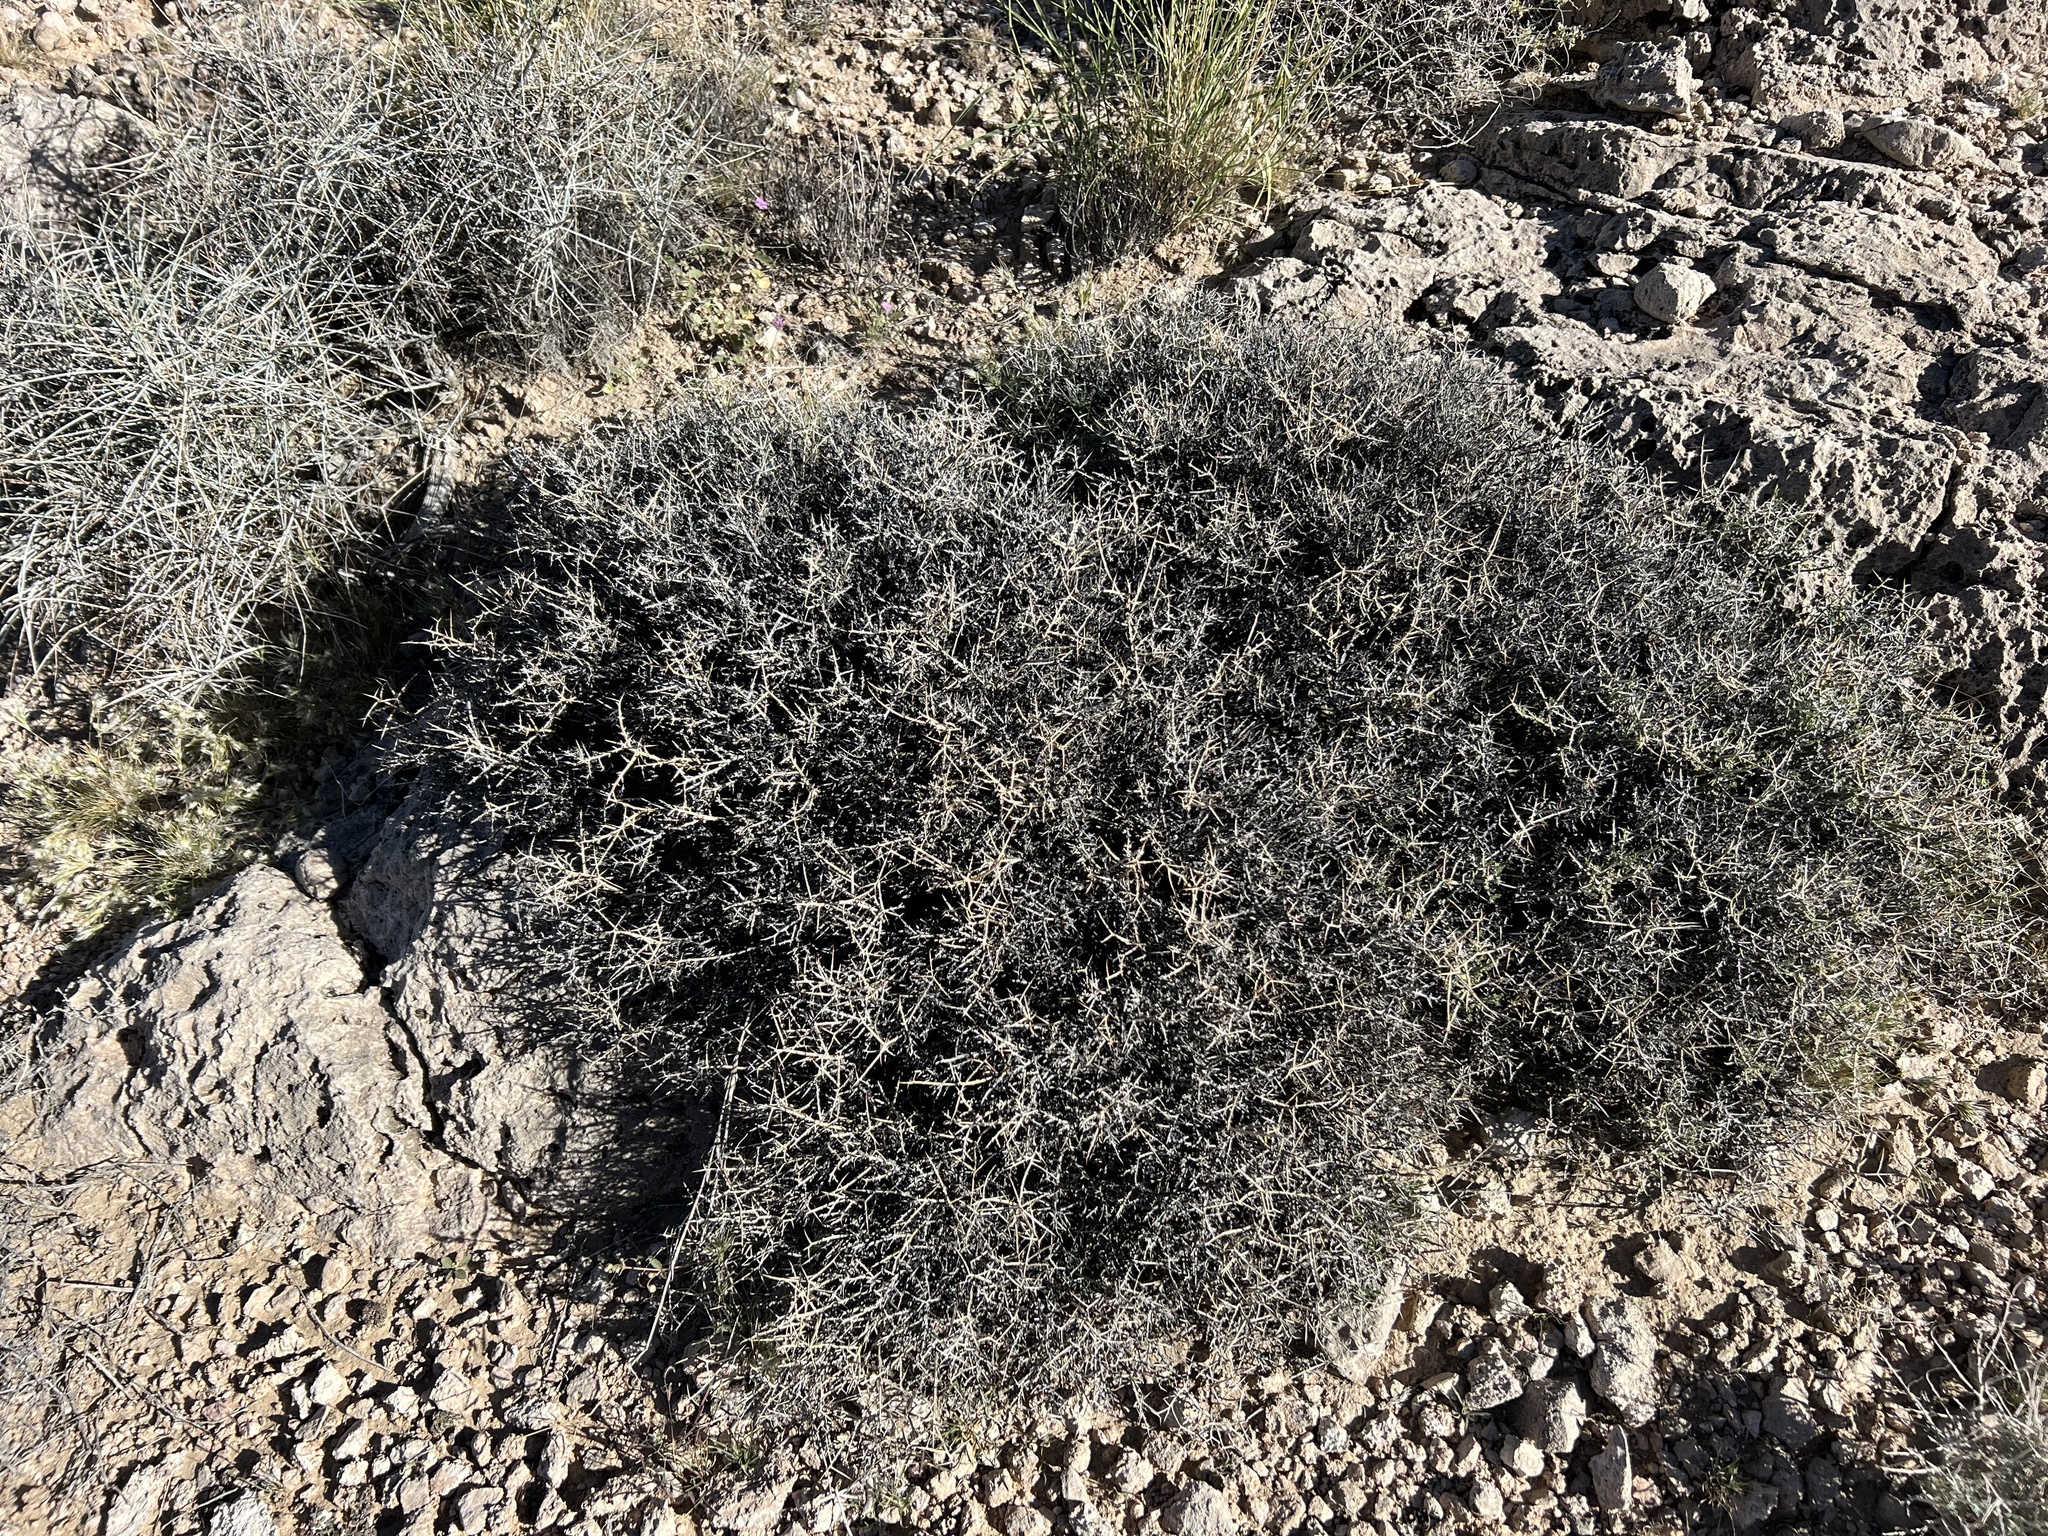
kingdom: Plantae
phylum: Tracheophyta
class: Magnoliopsida
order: Lamiales
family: Oleaceae
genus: Menodora
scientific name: Menodora spinescens
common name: Spiny menodora
